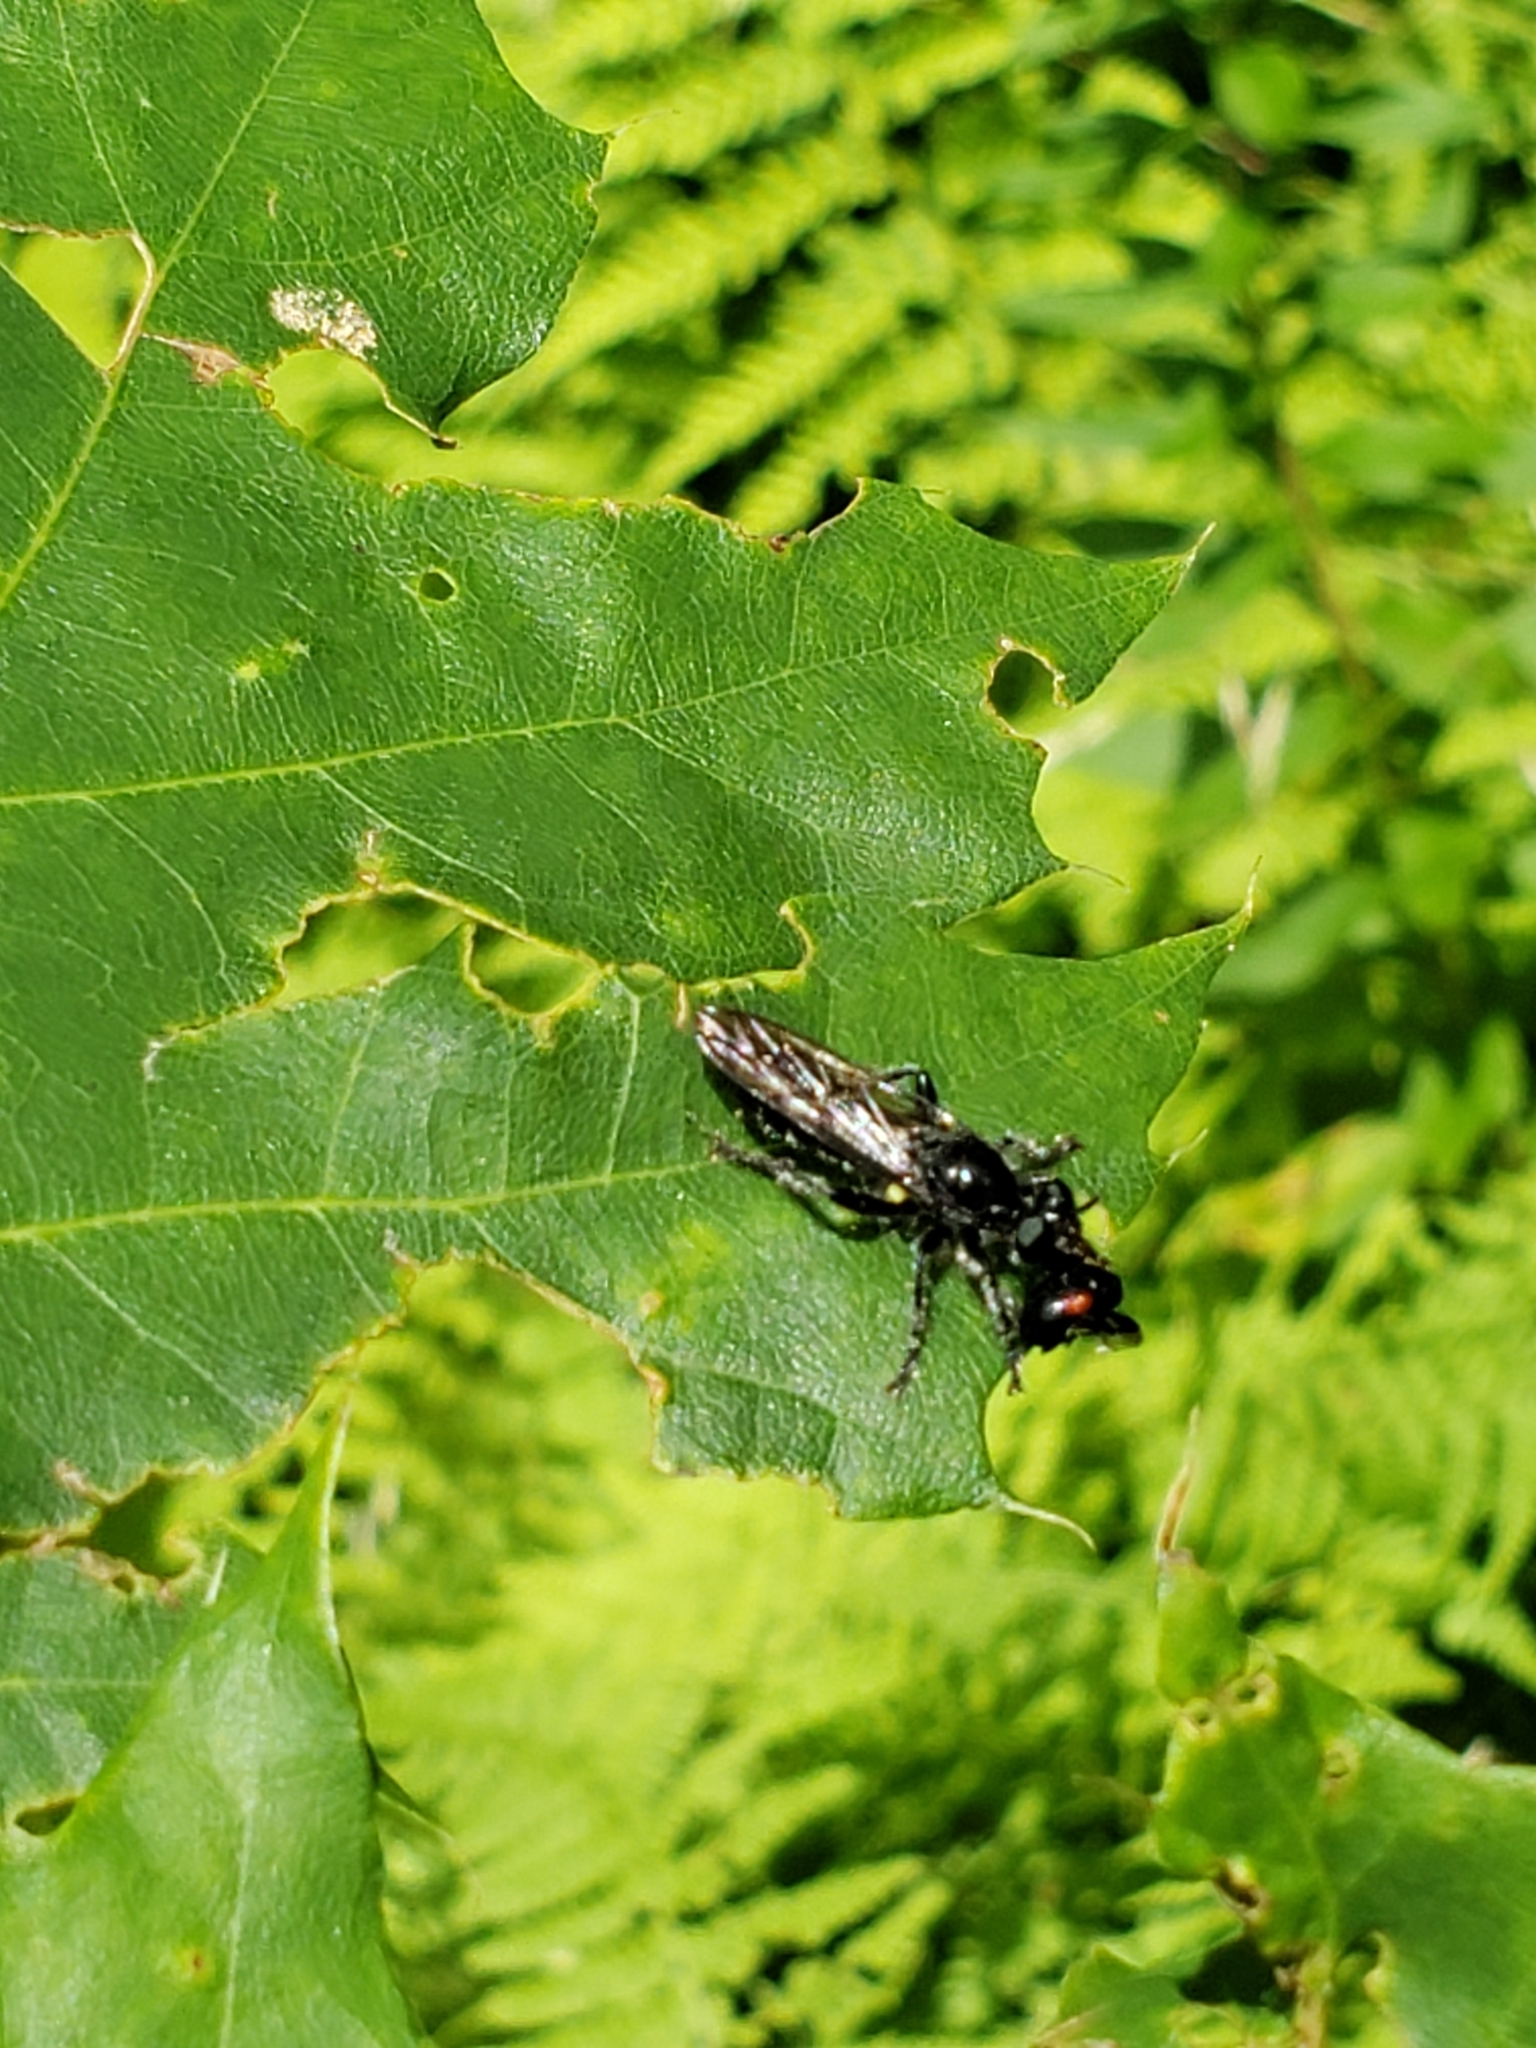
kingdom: Animalia
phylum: Arthropoda
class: Insecta
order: Diptera
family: Asilidae
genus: Laphria
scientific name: Laphria
